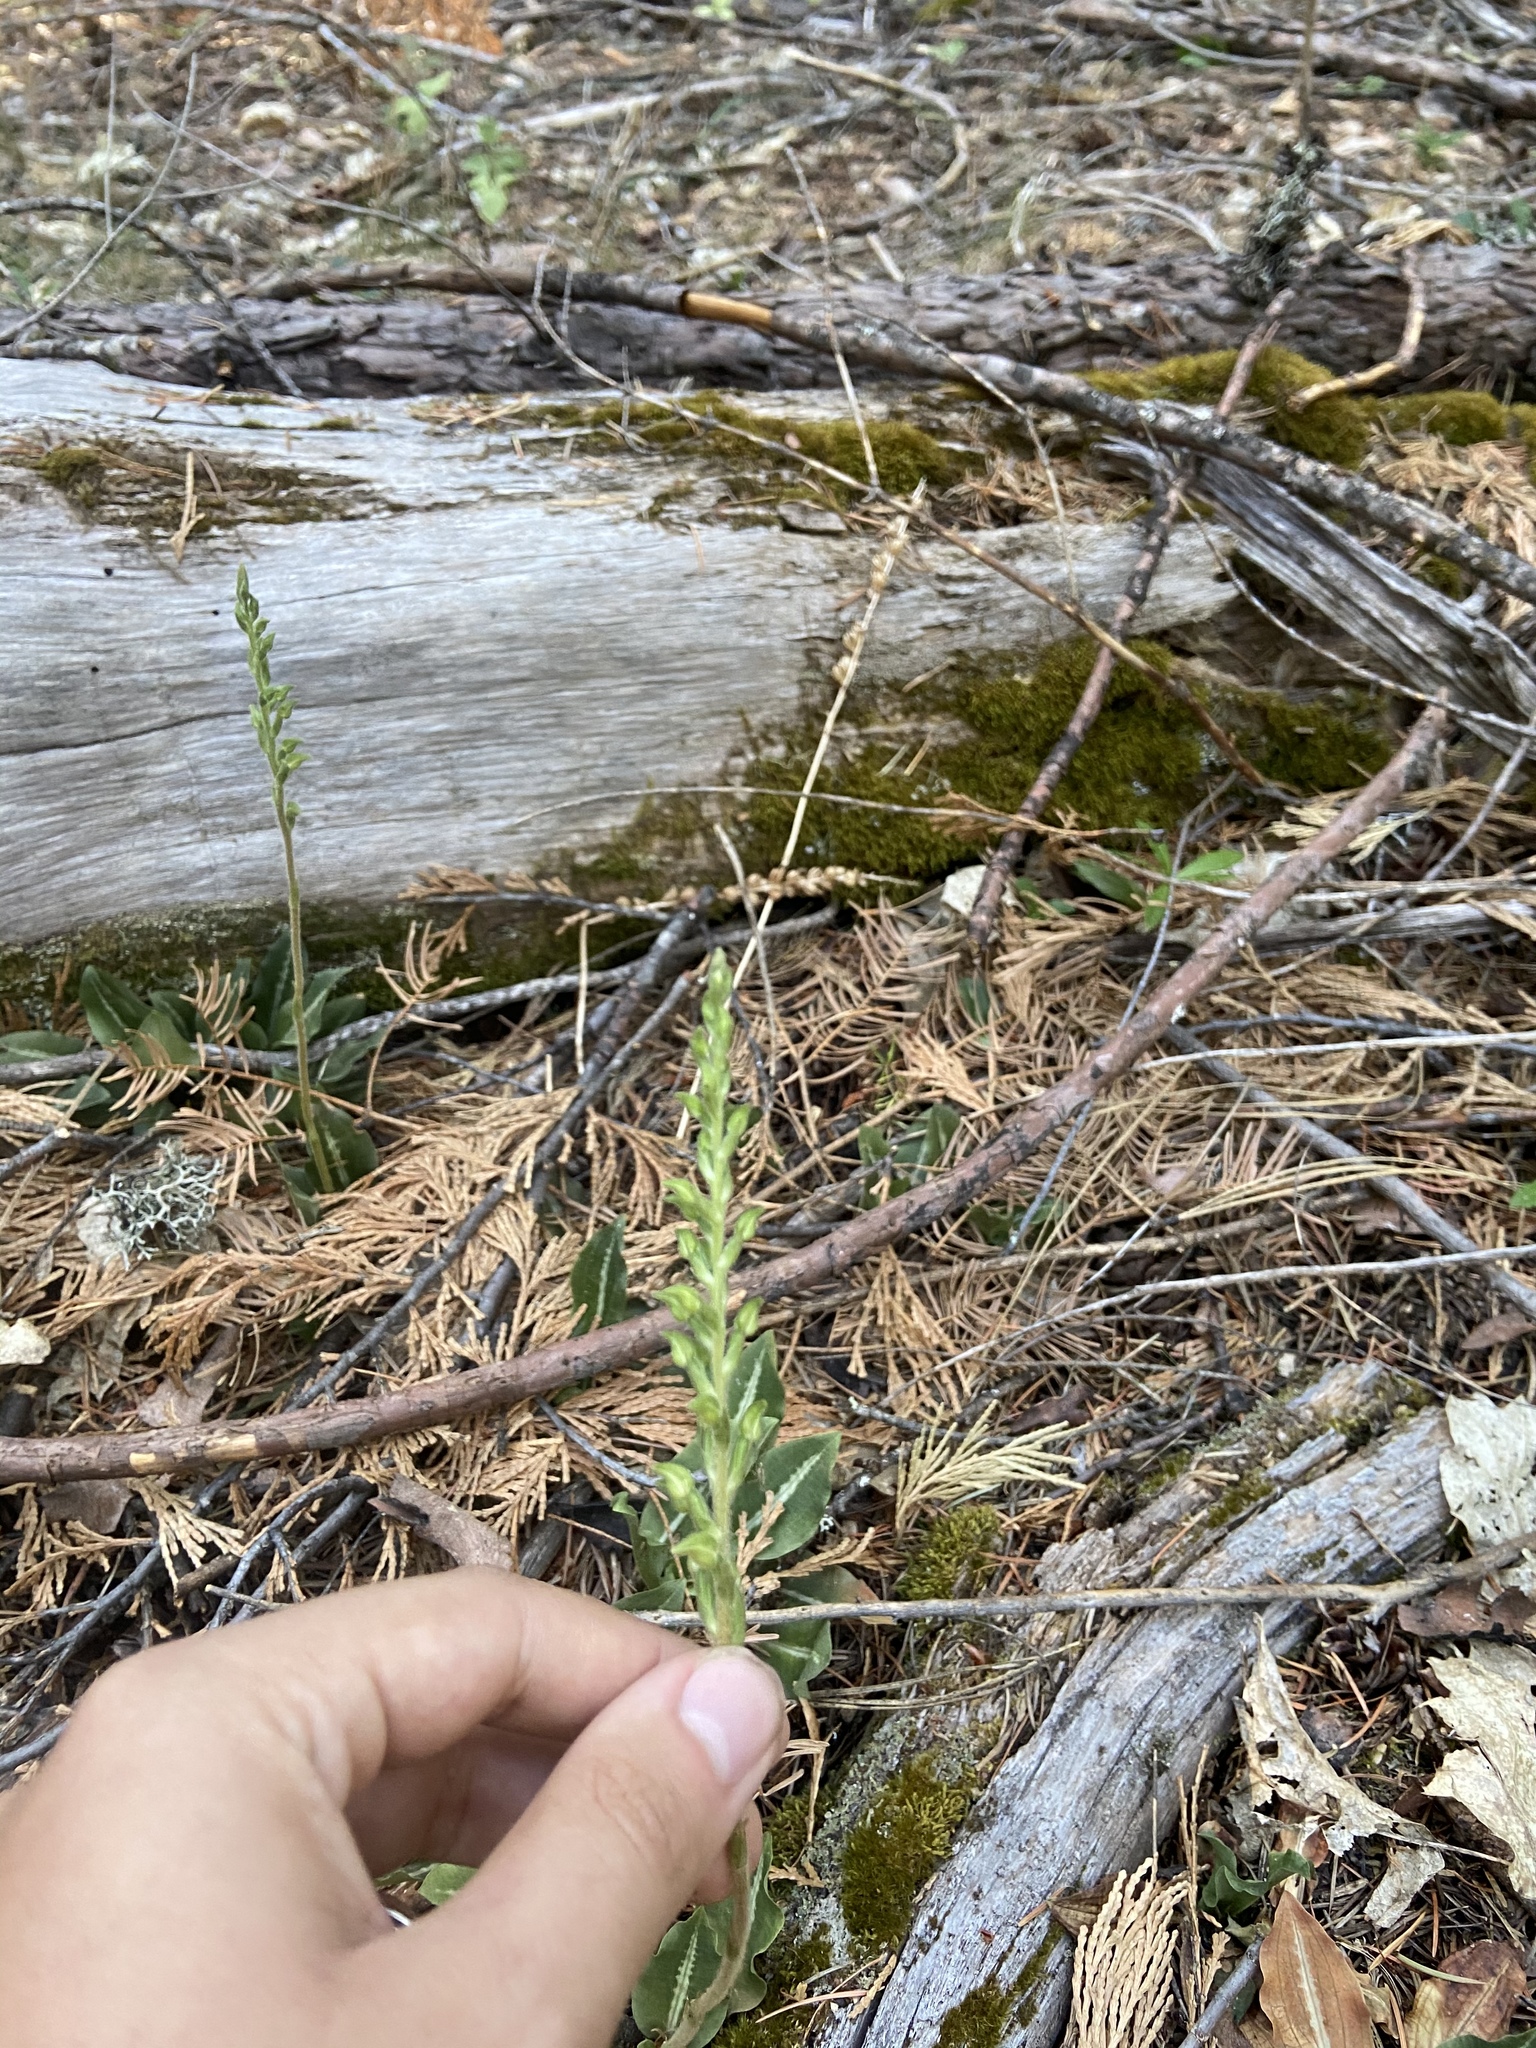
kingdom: Plantae
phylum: Tracheophyta
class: Liliopsida
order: Asparagales
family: Orchidaceae
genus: Goodyera
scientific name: Goodyera oblongifolia
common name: Giant rattlesnake-plantain
